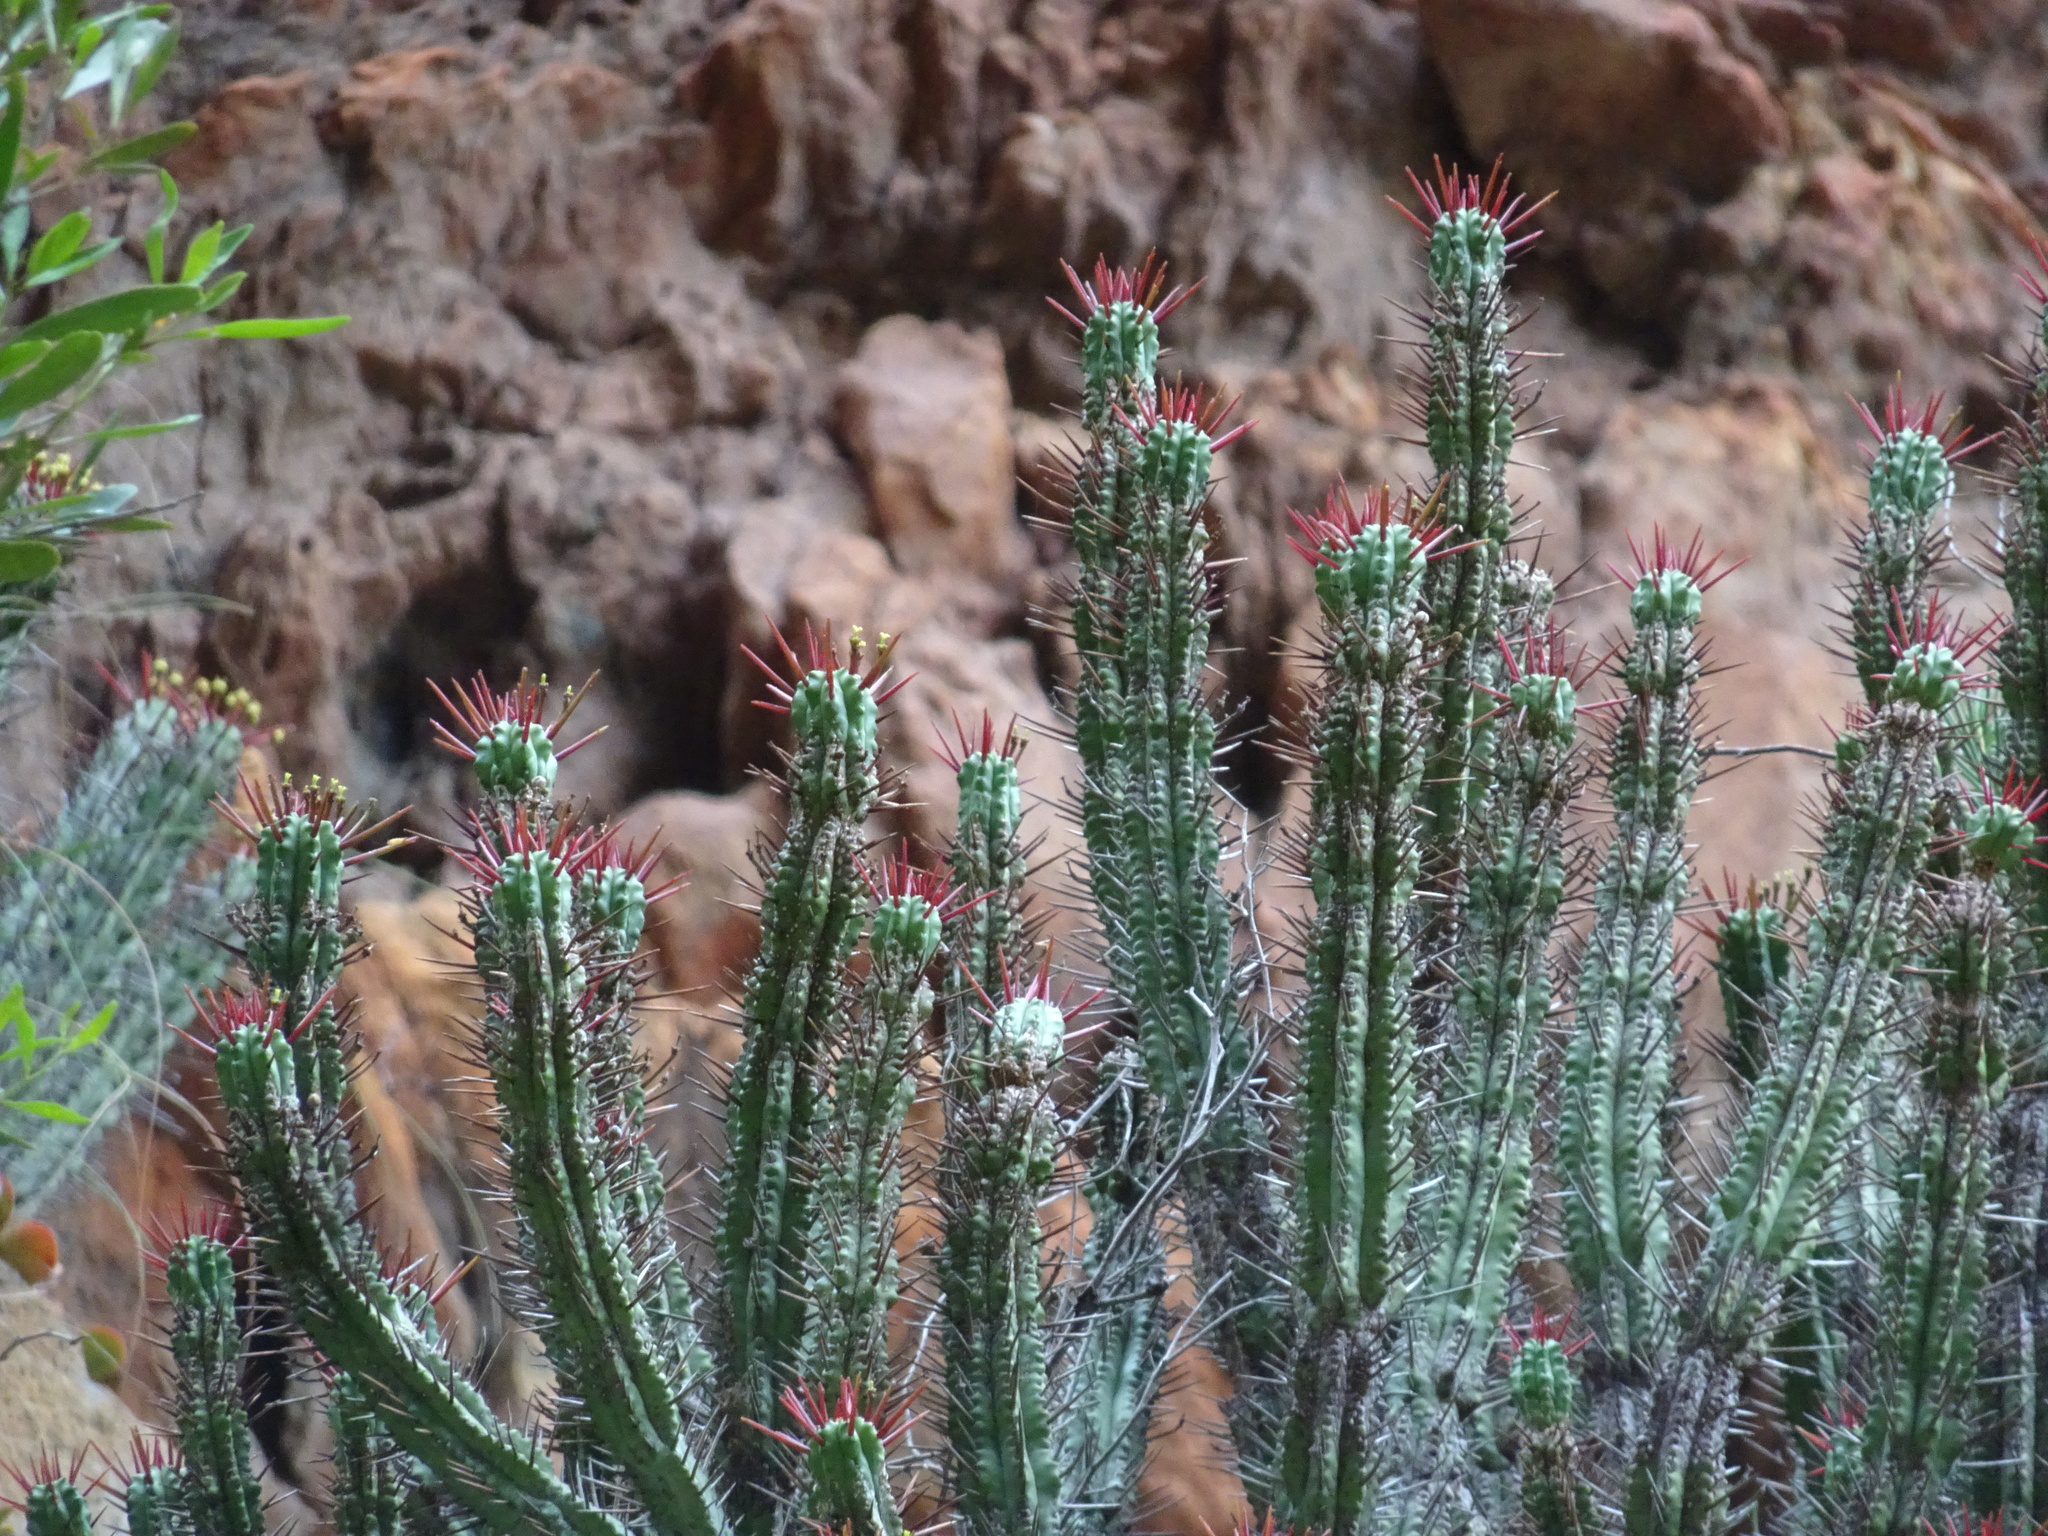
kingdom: Plantae
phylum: Tracheophyta
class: Magnoliopsida
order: Malpighiales
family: Euphorbiaceae
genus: Euphorbia
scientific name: Euphorbia heptagona
